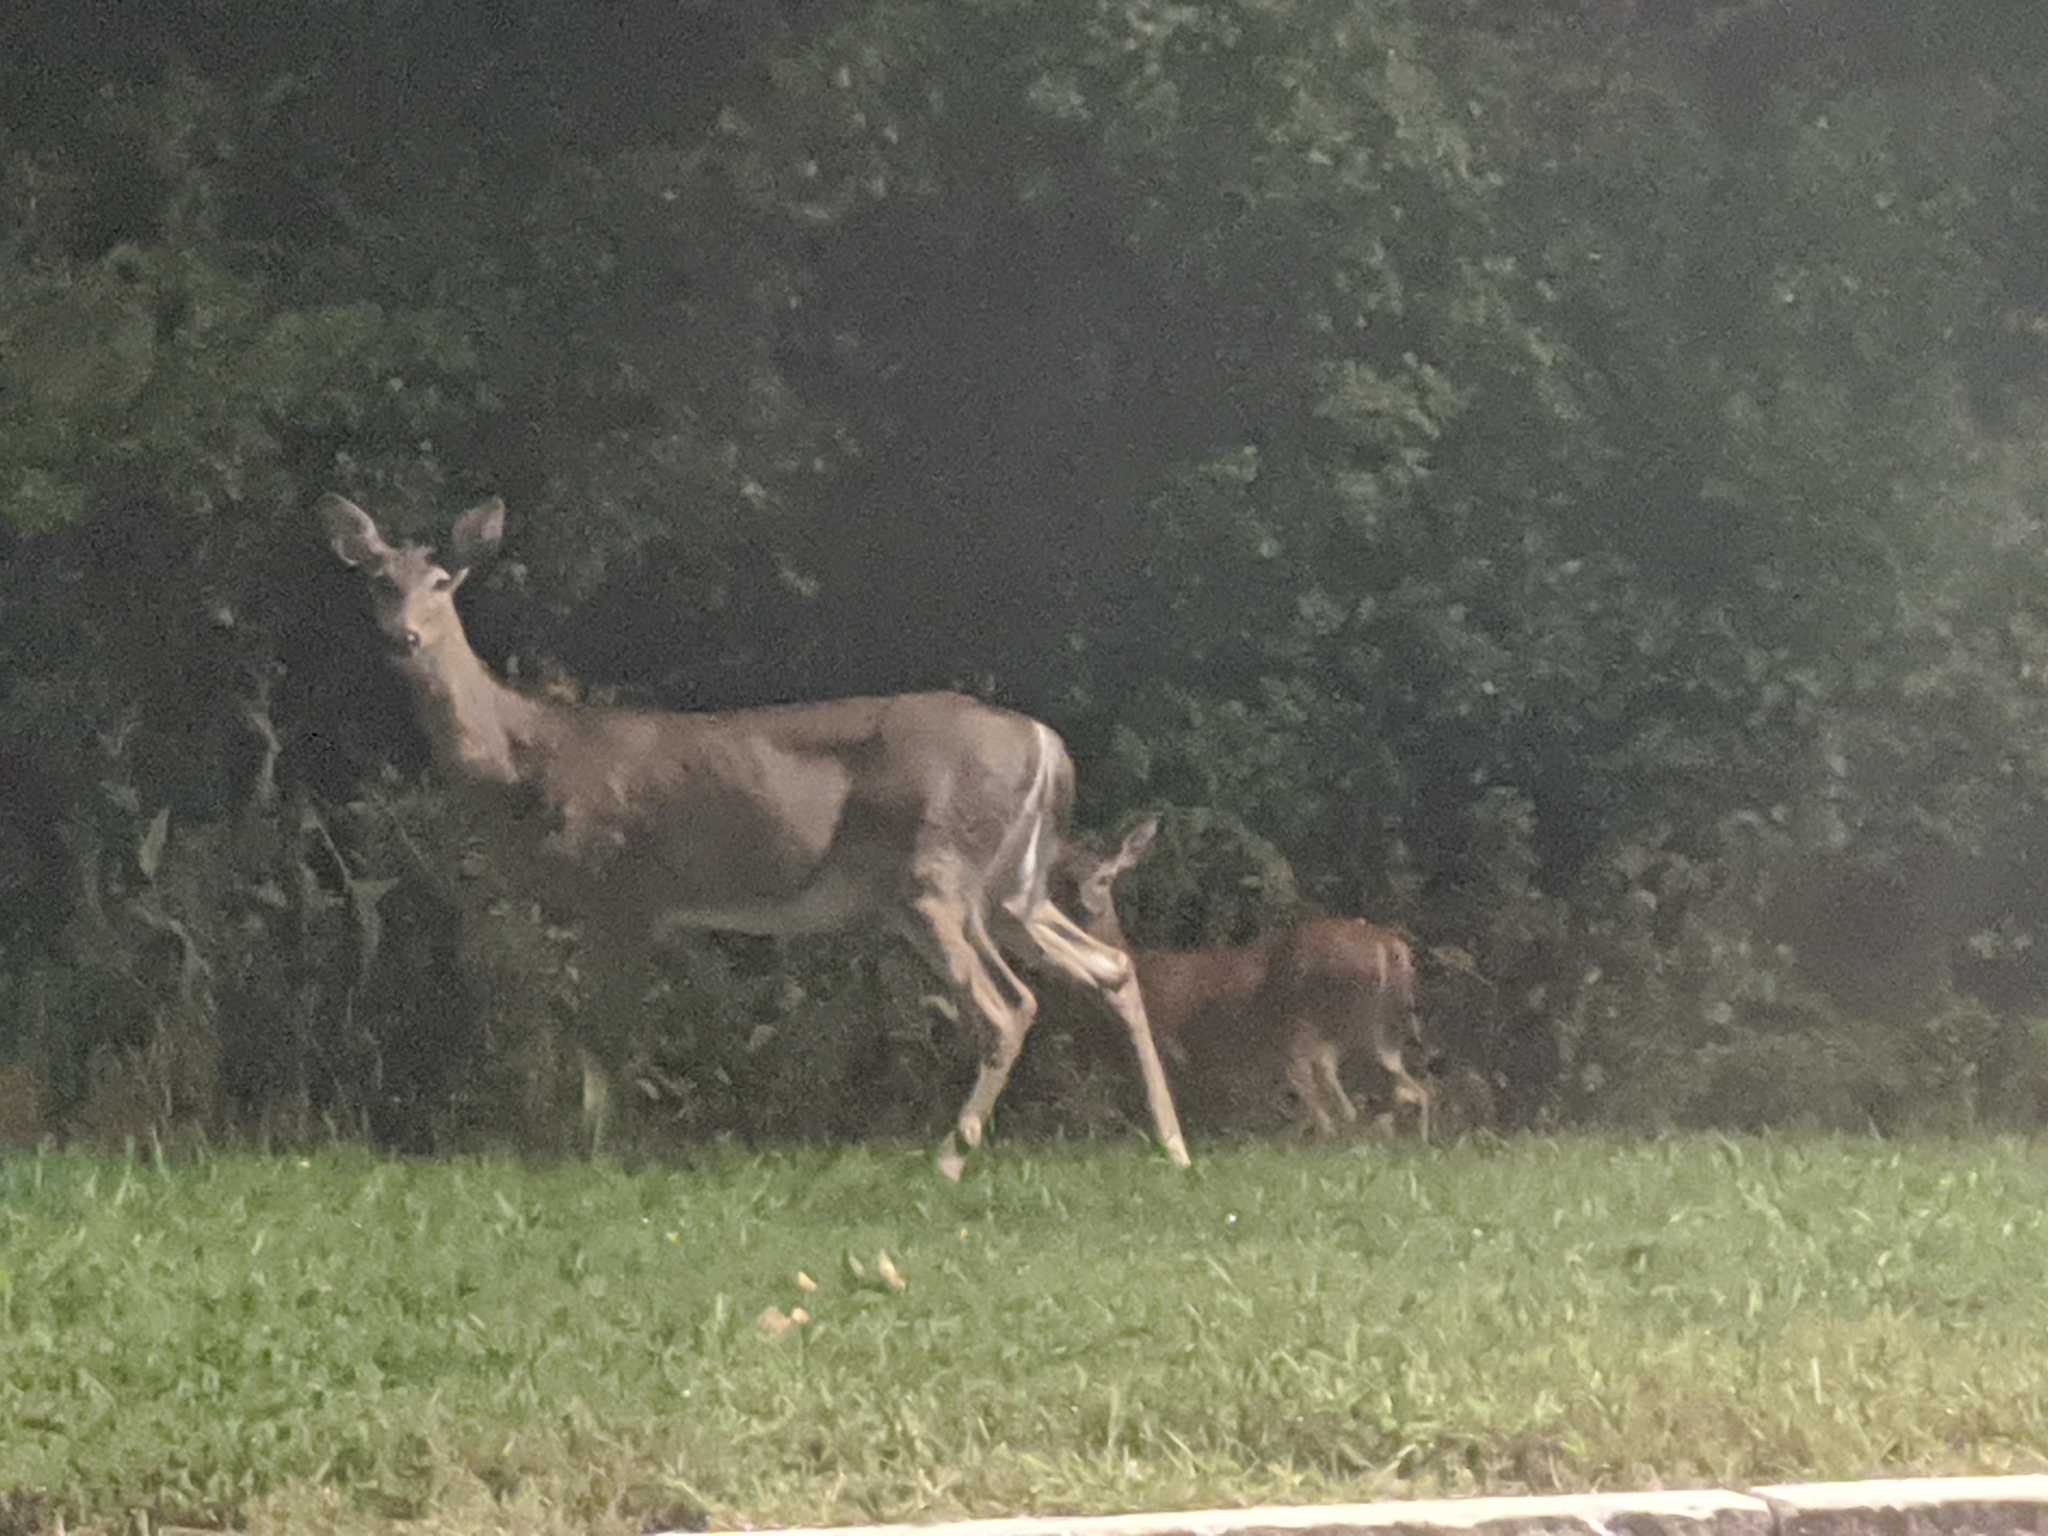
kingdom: Animalia
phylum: Chordata
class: Mammalia
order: Artiodactyla
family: Cervidae
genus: Odocoileus
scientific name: Odocoileus virginianus
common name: White-tailed deer
